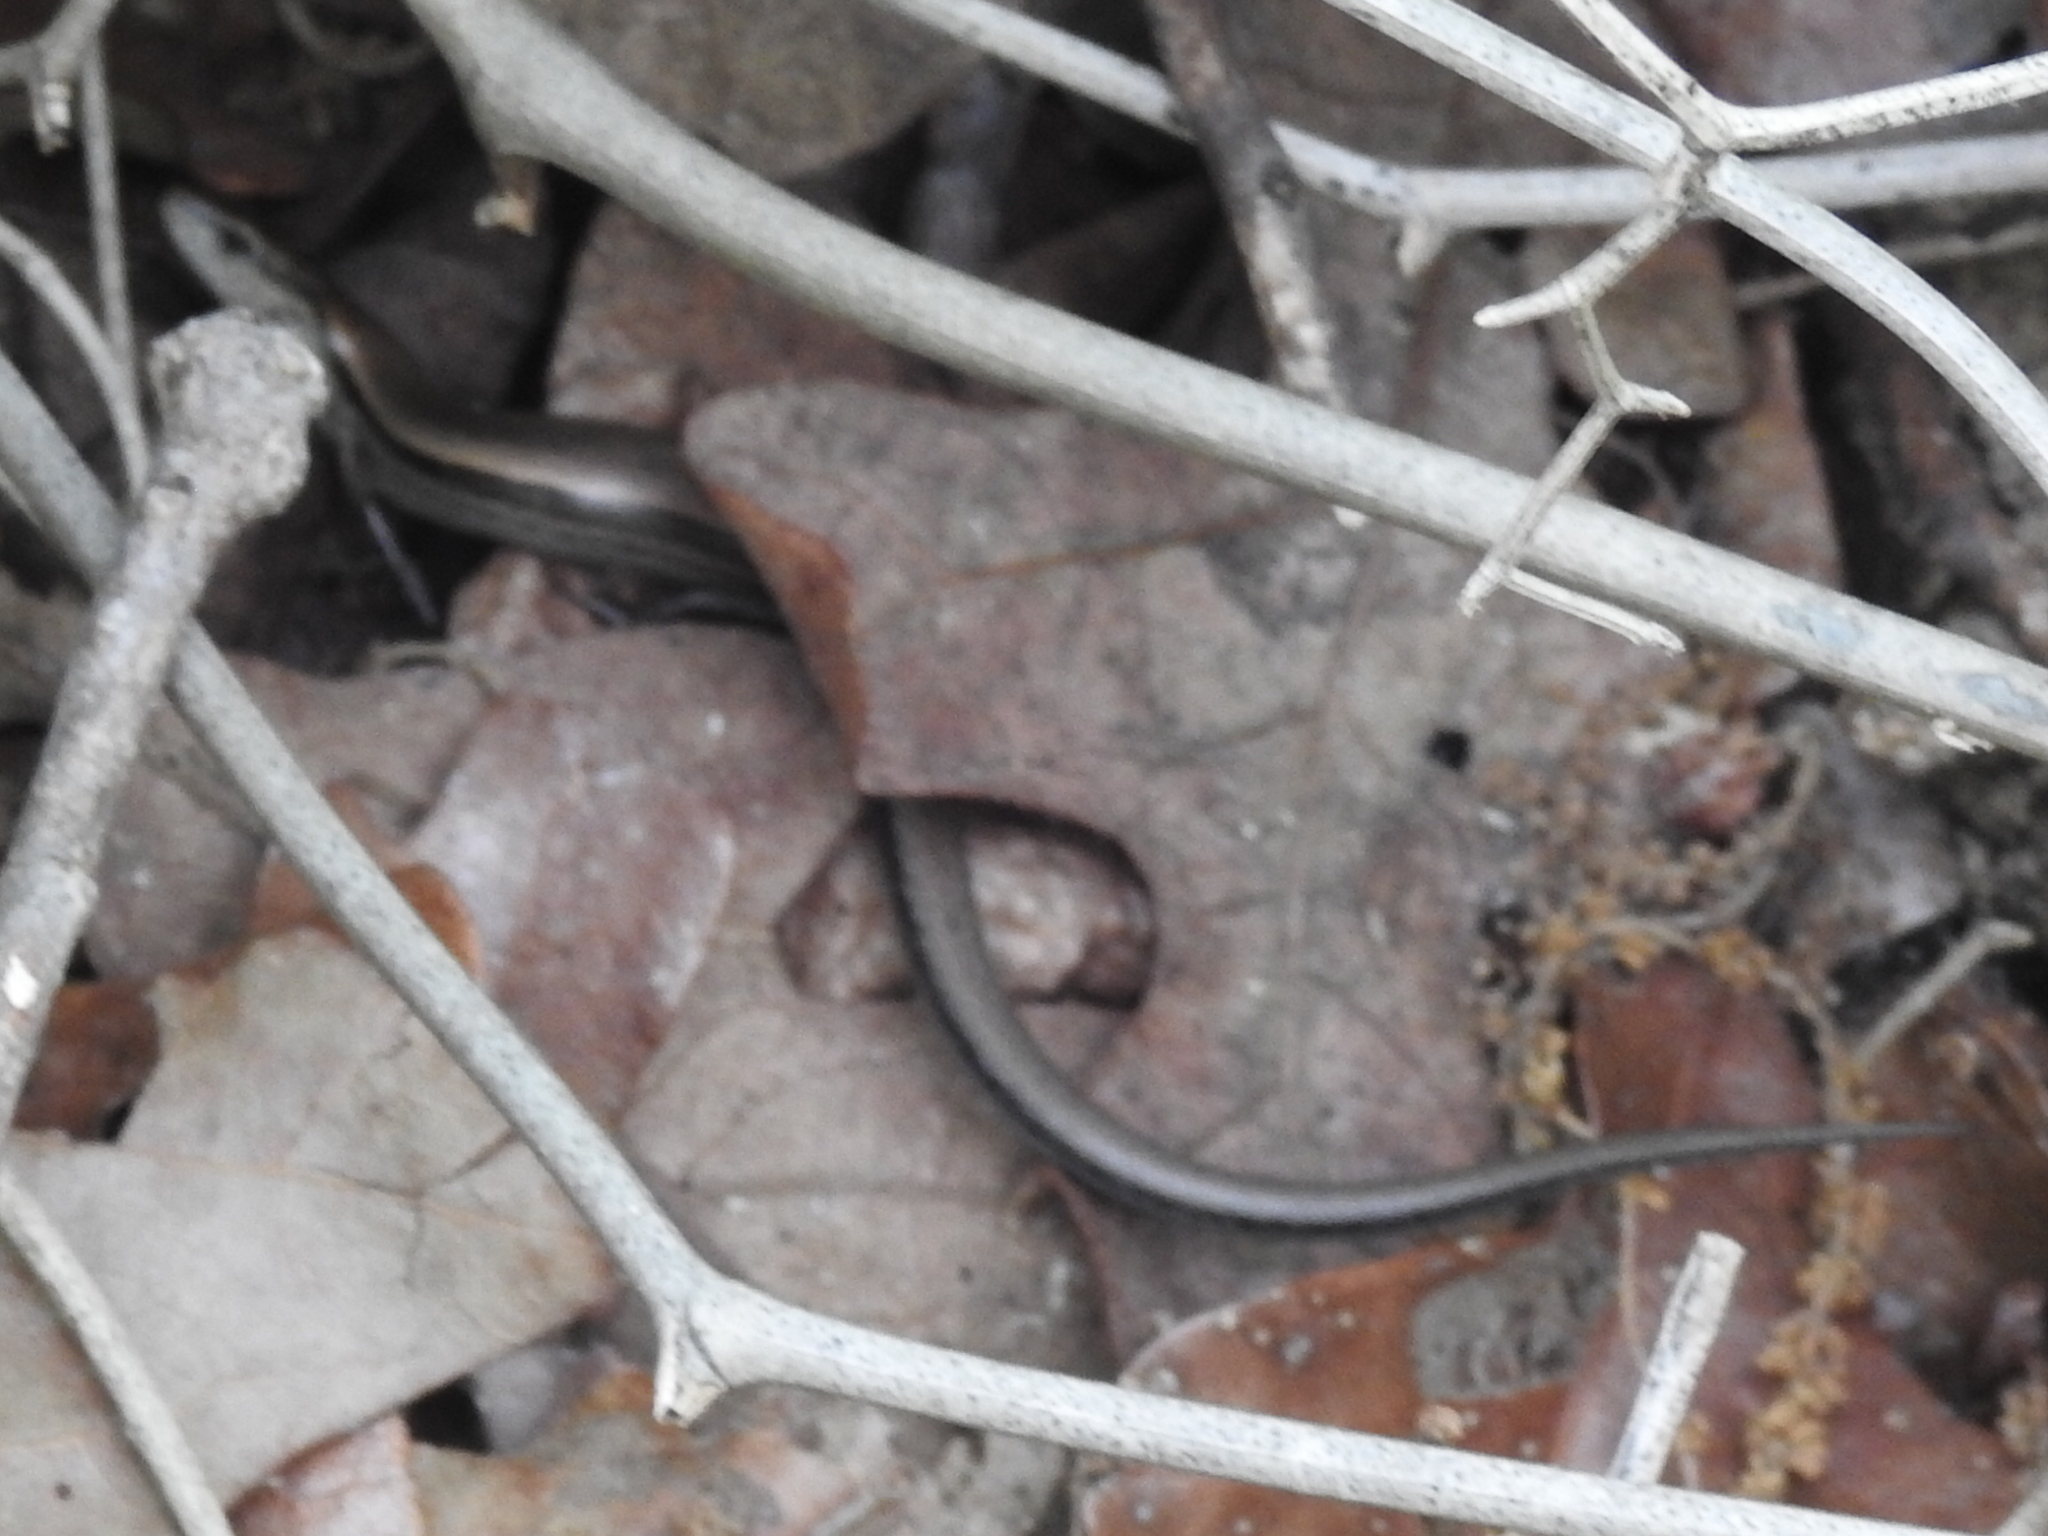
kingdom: Animalia
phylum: Chordata
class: Squamata
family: Scincidae
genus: Scincella
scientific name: Scincella lateralis
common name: Ground skink
